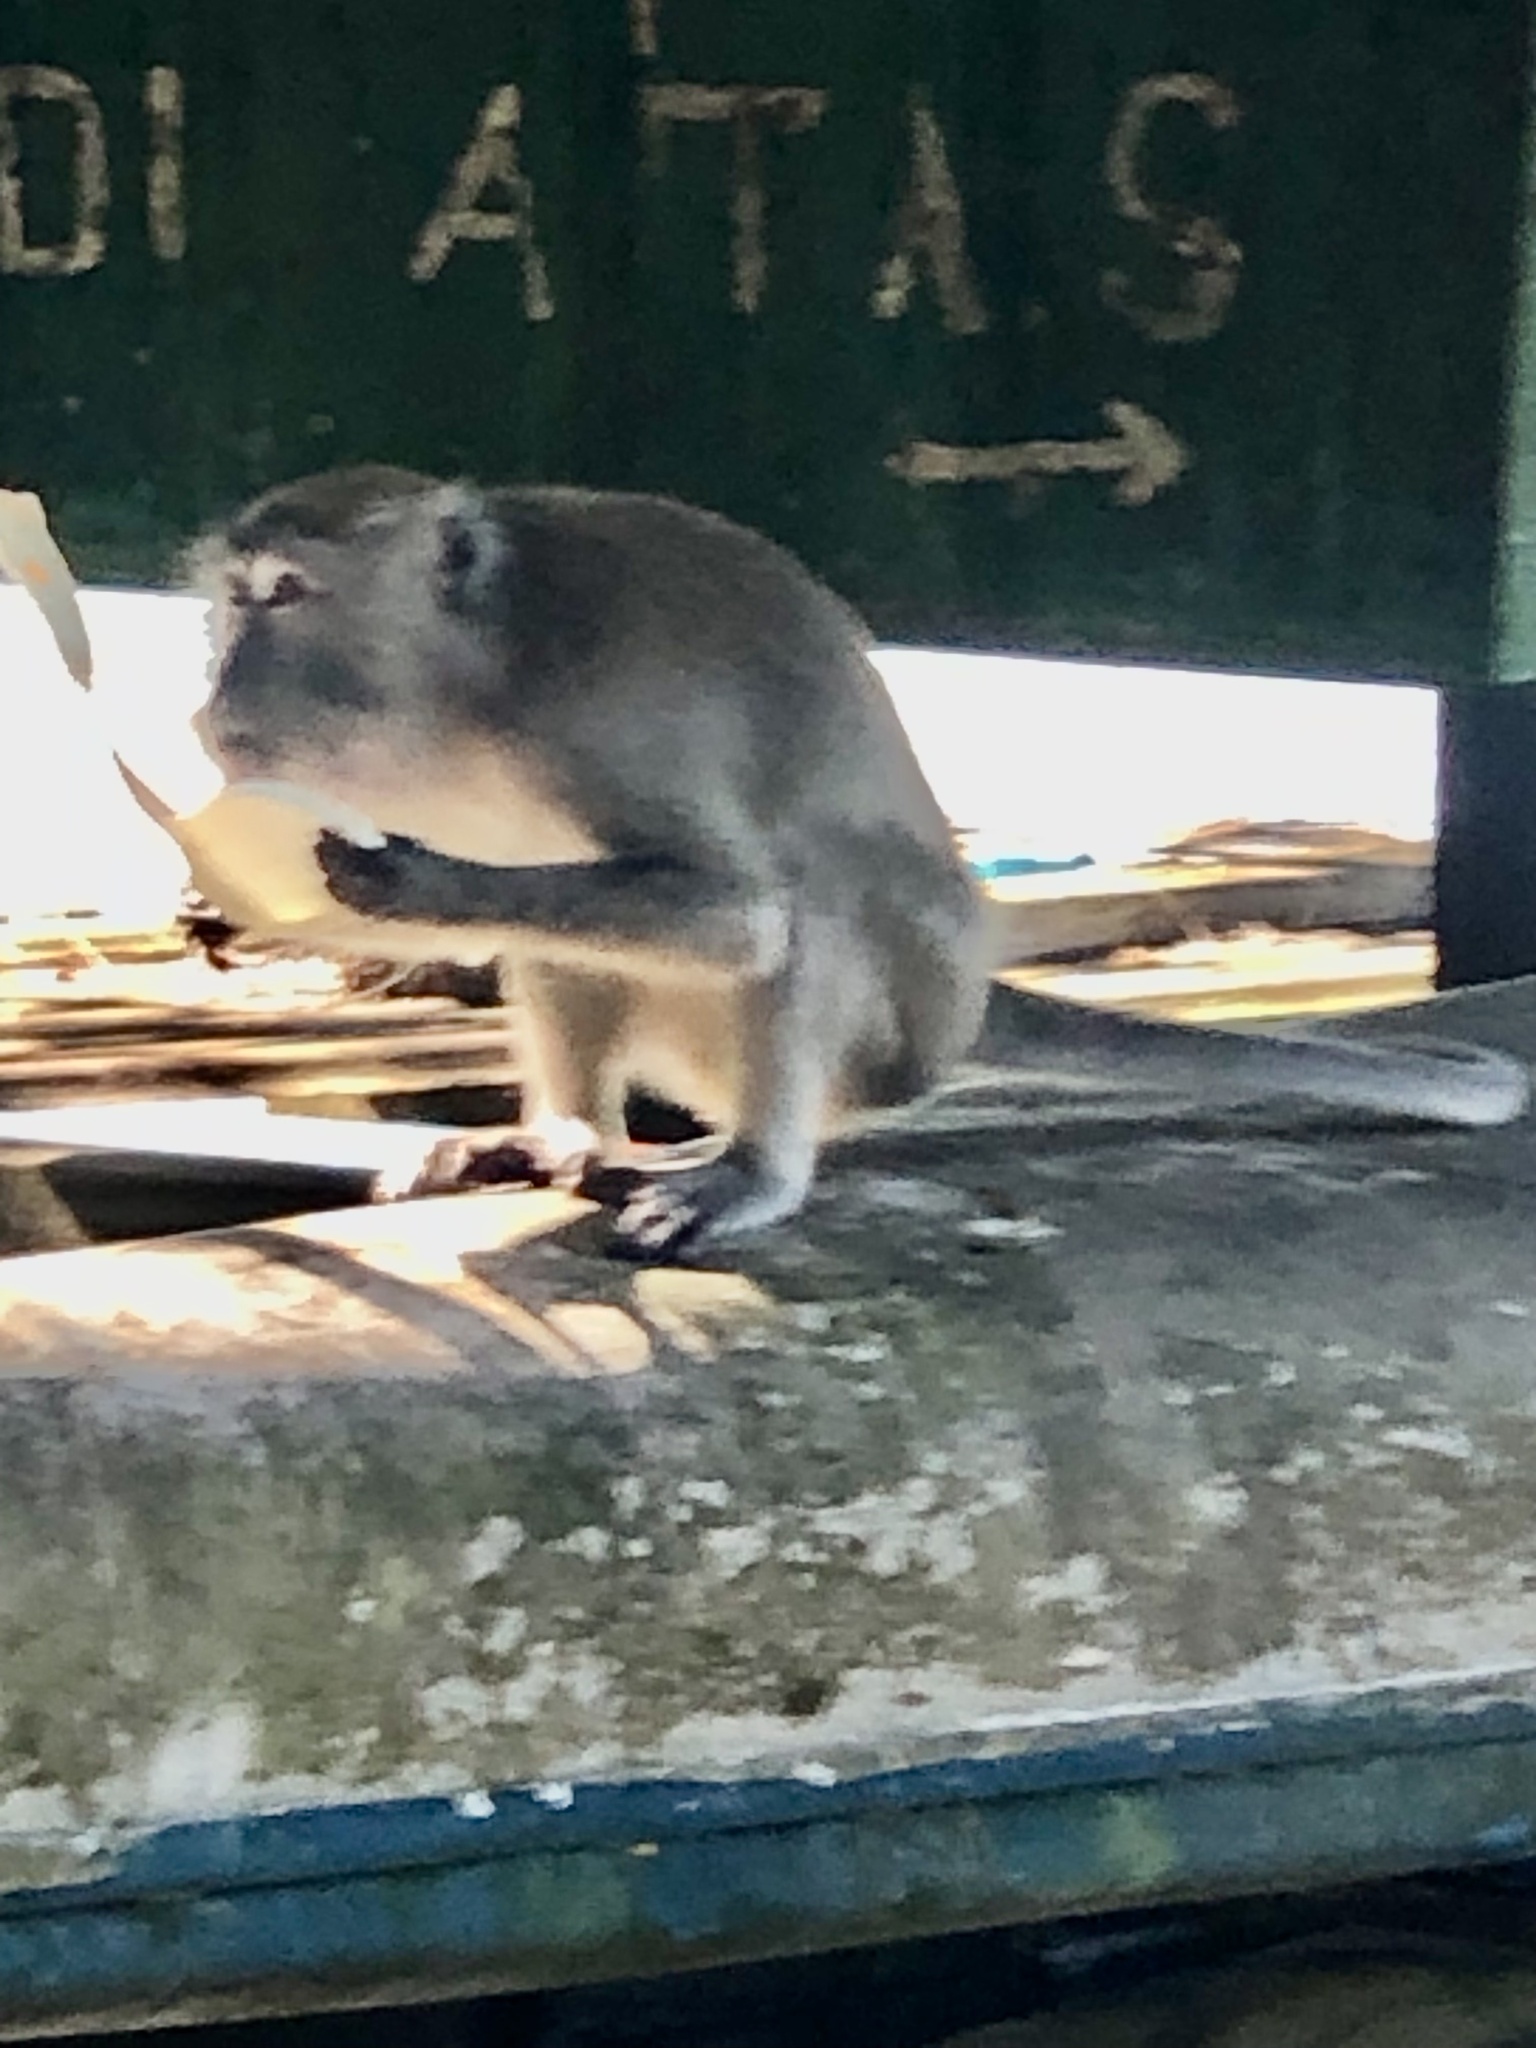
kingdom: Animalia
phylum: Chordata
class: Mammalia
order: Primates
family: Cercopithecidae
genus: Macaca
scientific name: Macaca fascicularis
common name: Crab-eating macaque
